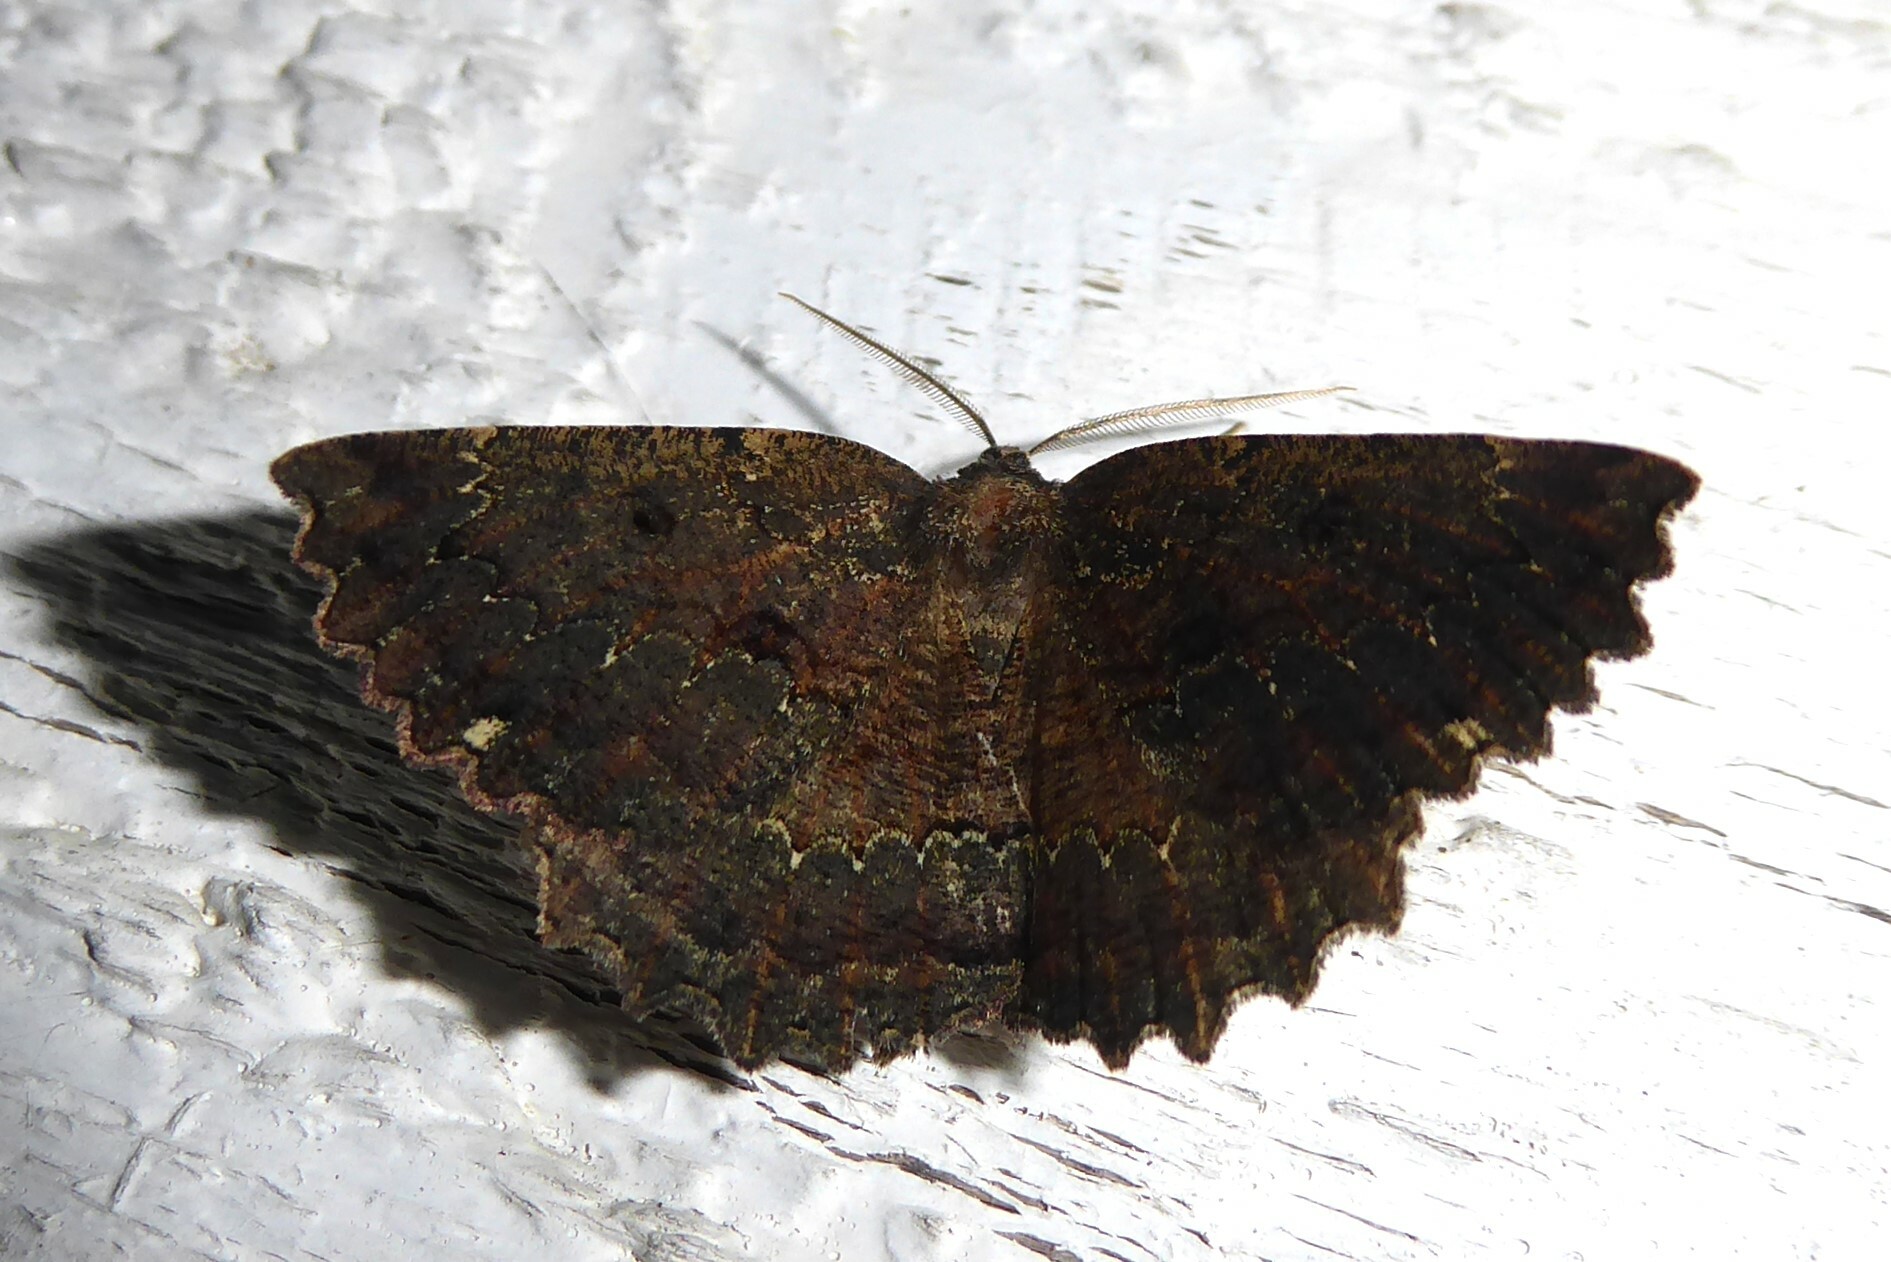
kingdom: Animalia
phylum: Arthropoda
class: Insecta
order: Lepidoptera
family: Geometridae
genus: Gellonia
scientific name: Gellonia pannularia
